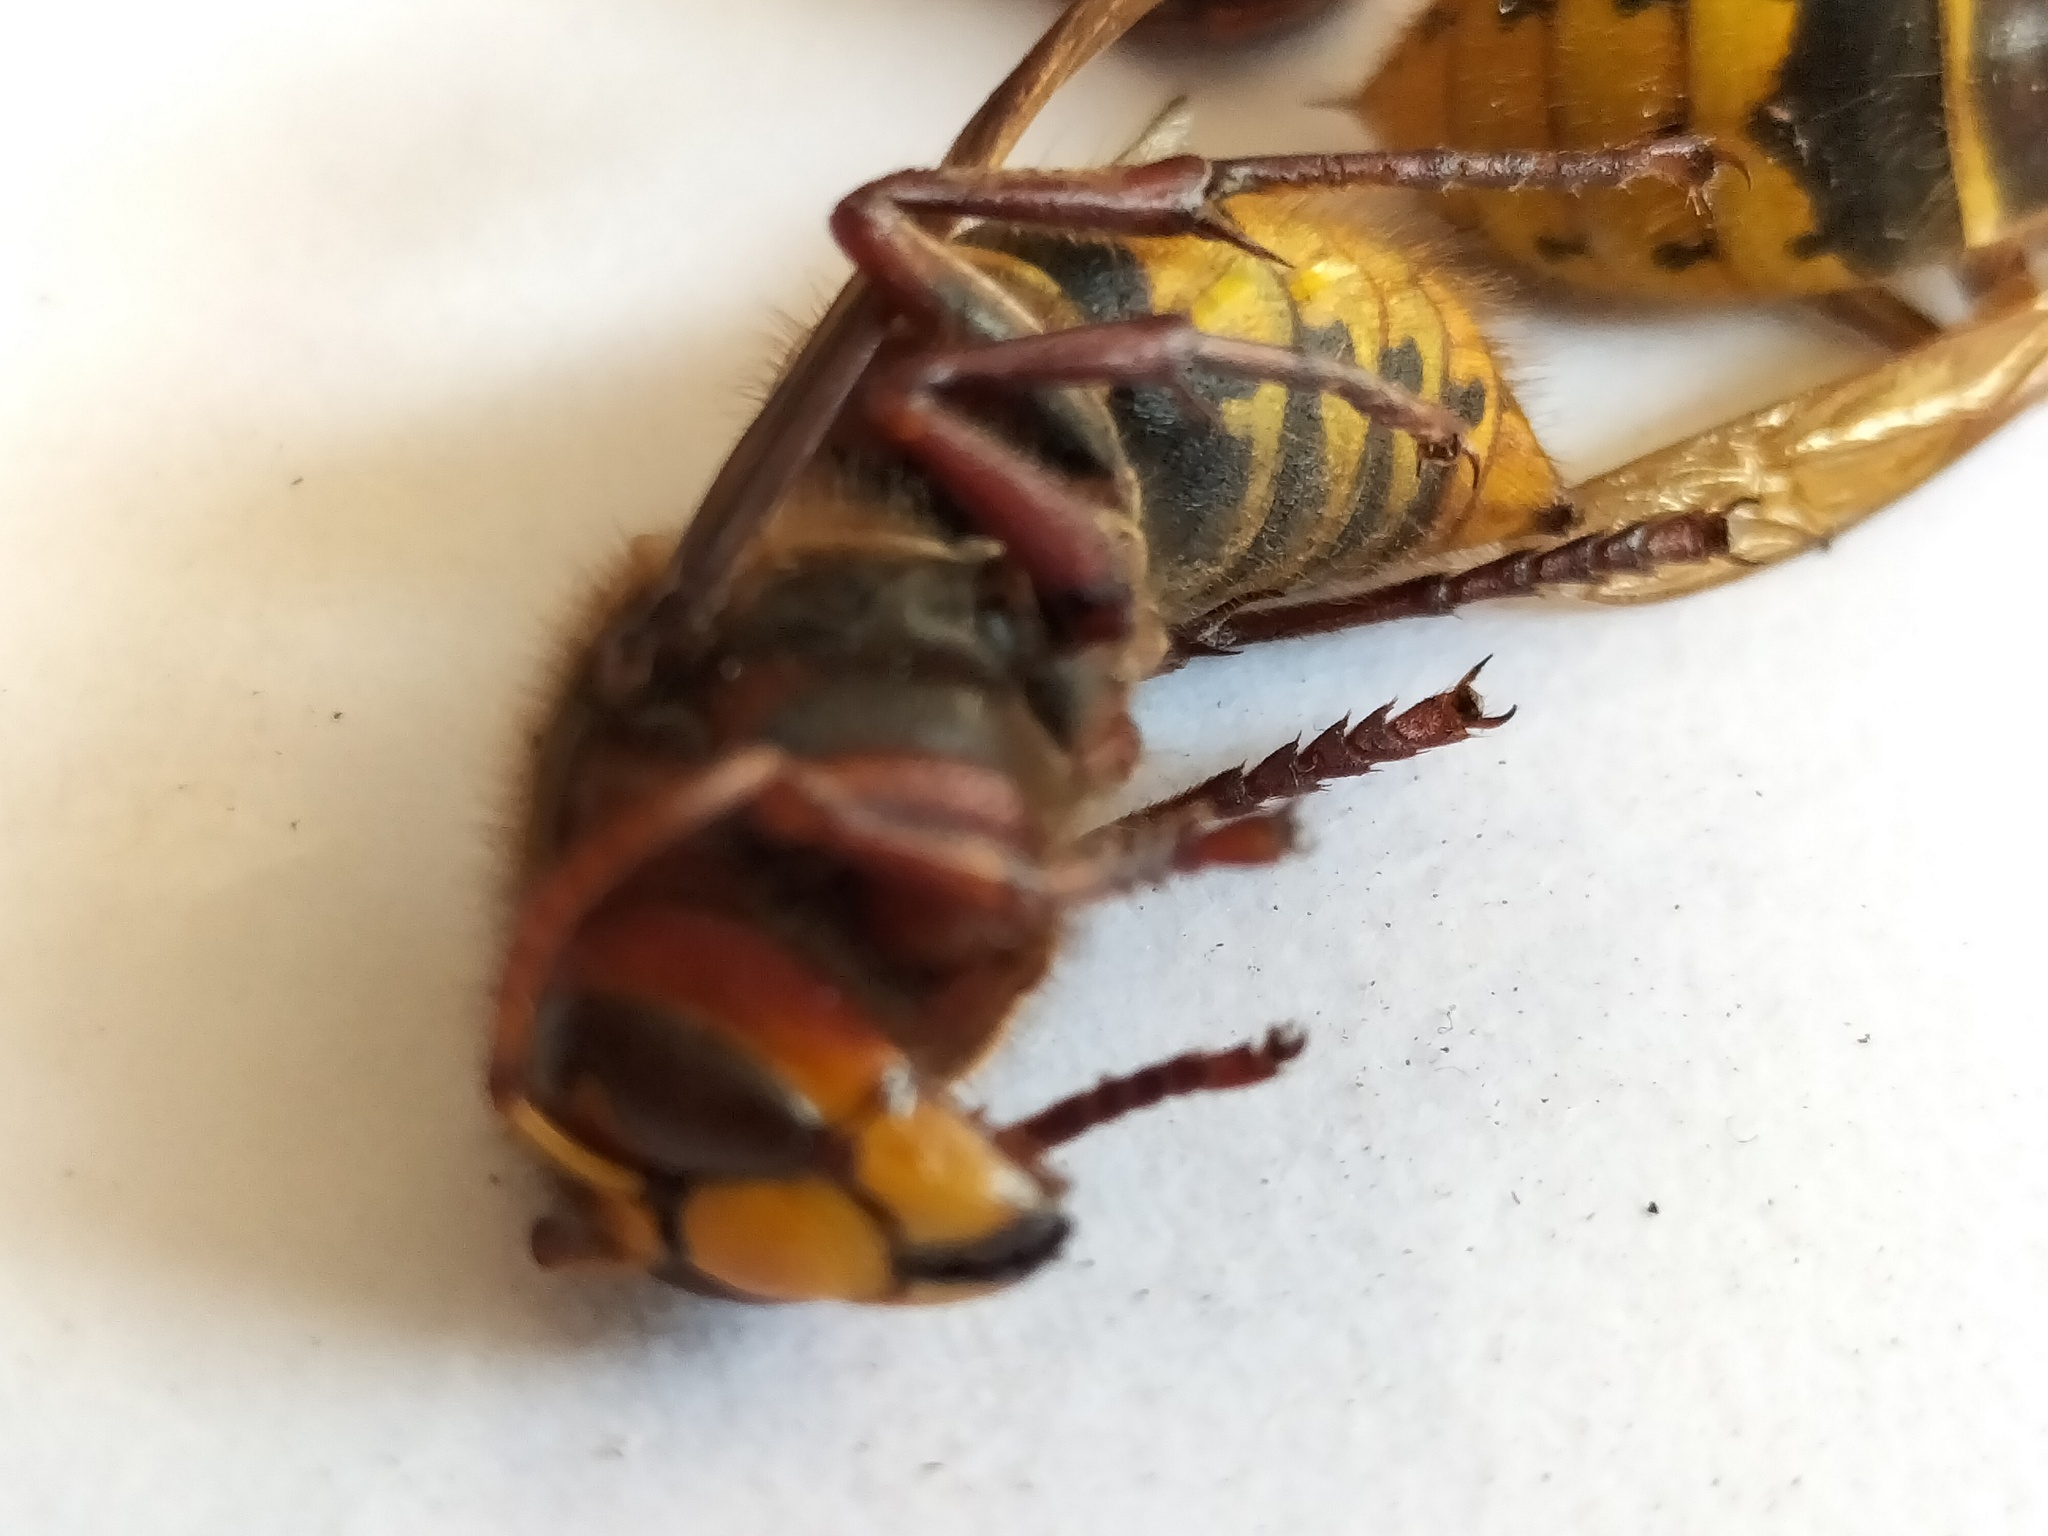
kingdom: Animalia
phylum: Arthropoda
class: Insecta
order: Hymenoptera
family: Vespidae
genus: Vespa
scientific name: Vespa crabro
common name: Hornet
